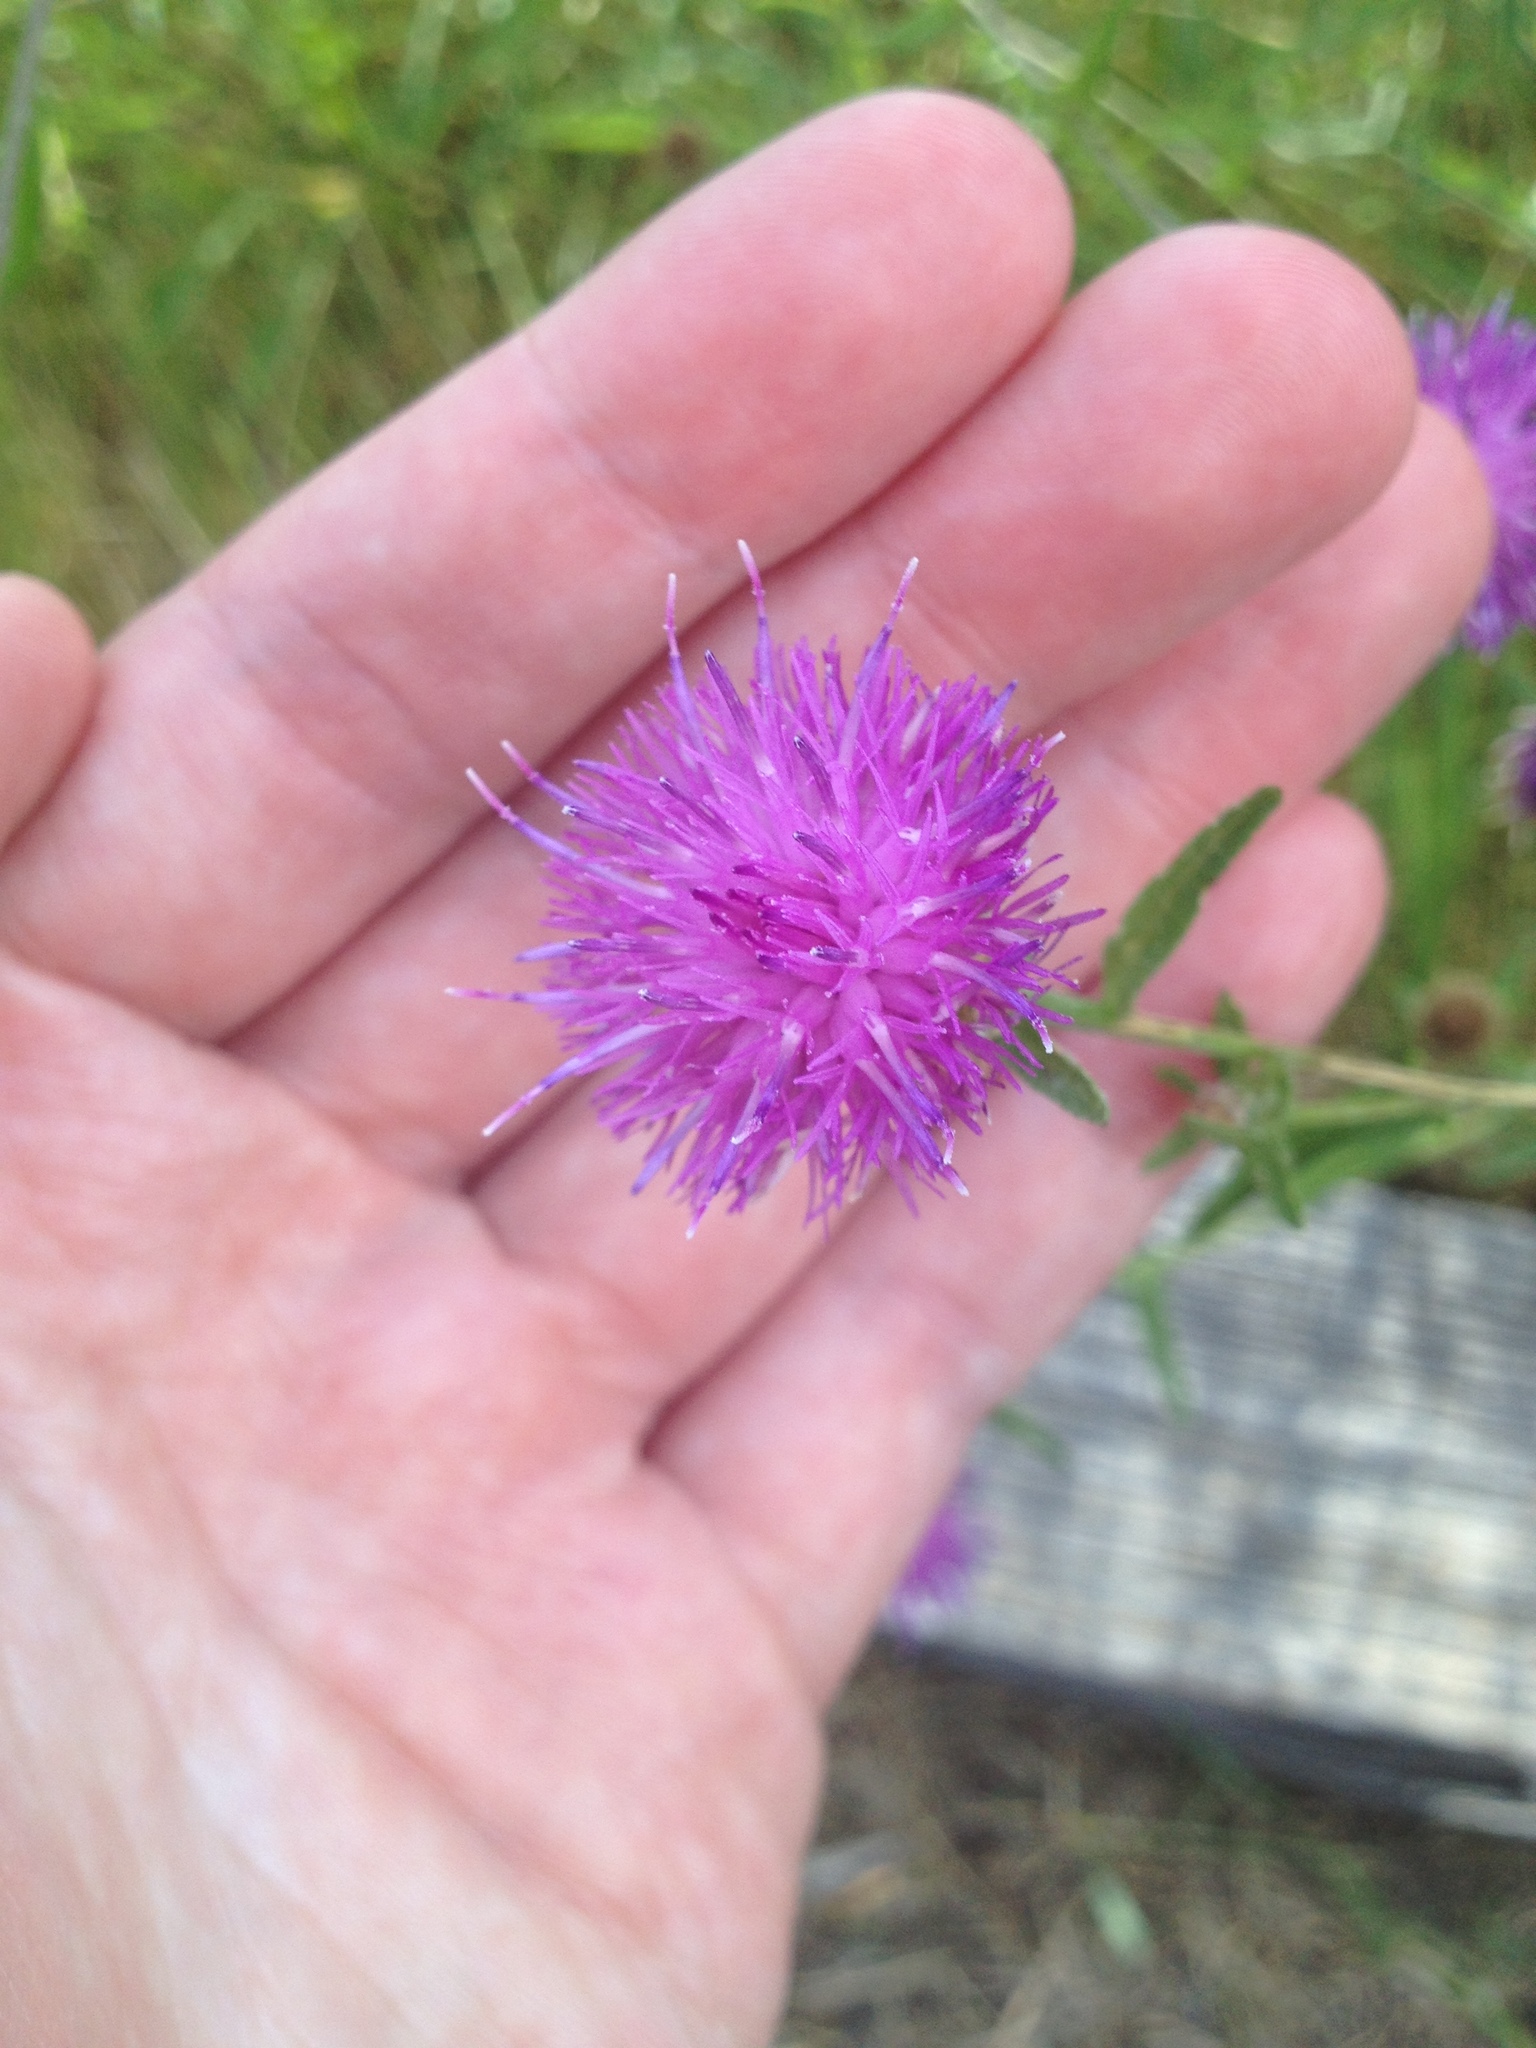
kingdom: Plantae
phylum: Tracheophyta
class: Magnoliopsida
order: Asterales
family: Asteraceae
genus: Centaurea
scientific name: Centaurea stoebe
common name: Spotted knapweed
